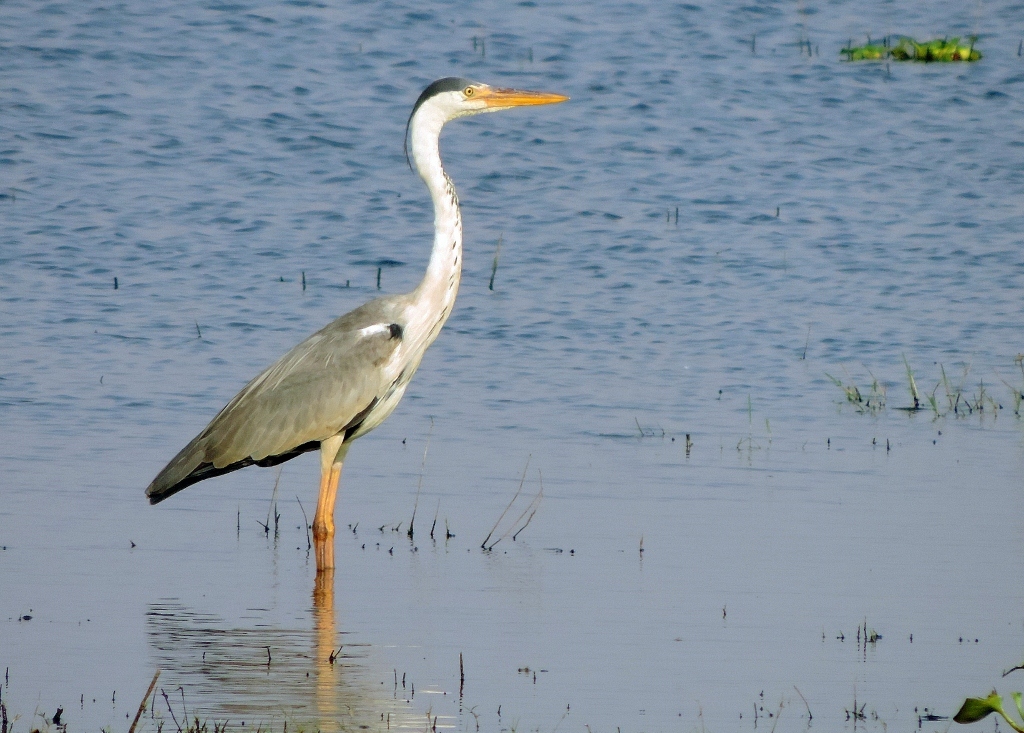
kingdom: Animalia
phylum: Chordata
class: Aves
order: Pelecaniformes
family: Ardeidae
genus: Ardea
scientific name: Ardea cinerea
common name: Grey heron
